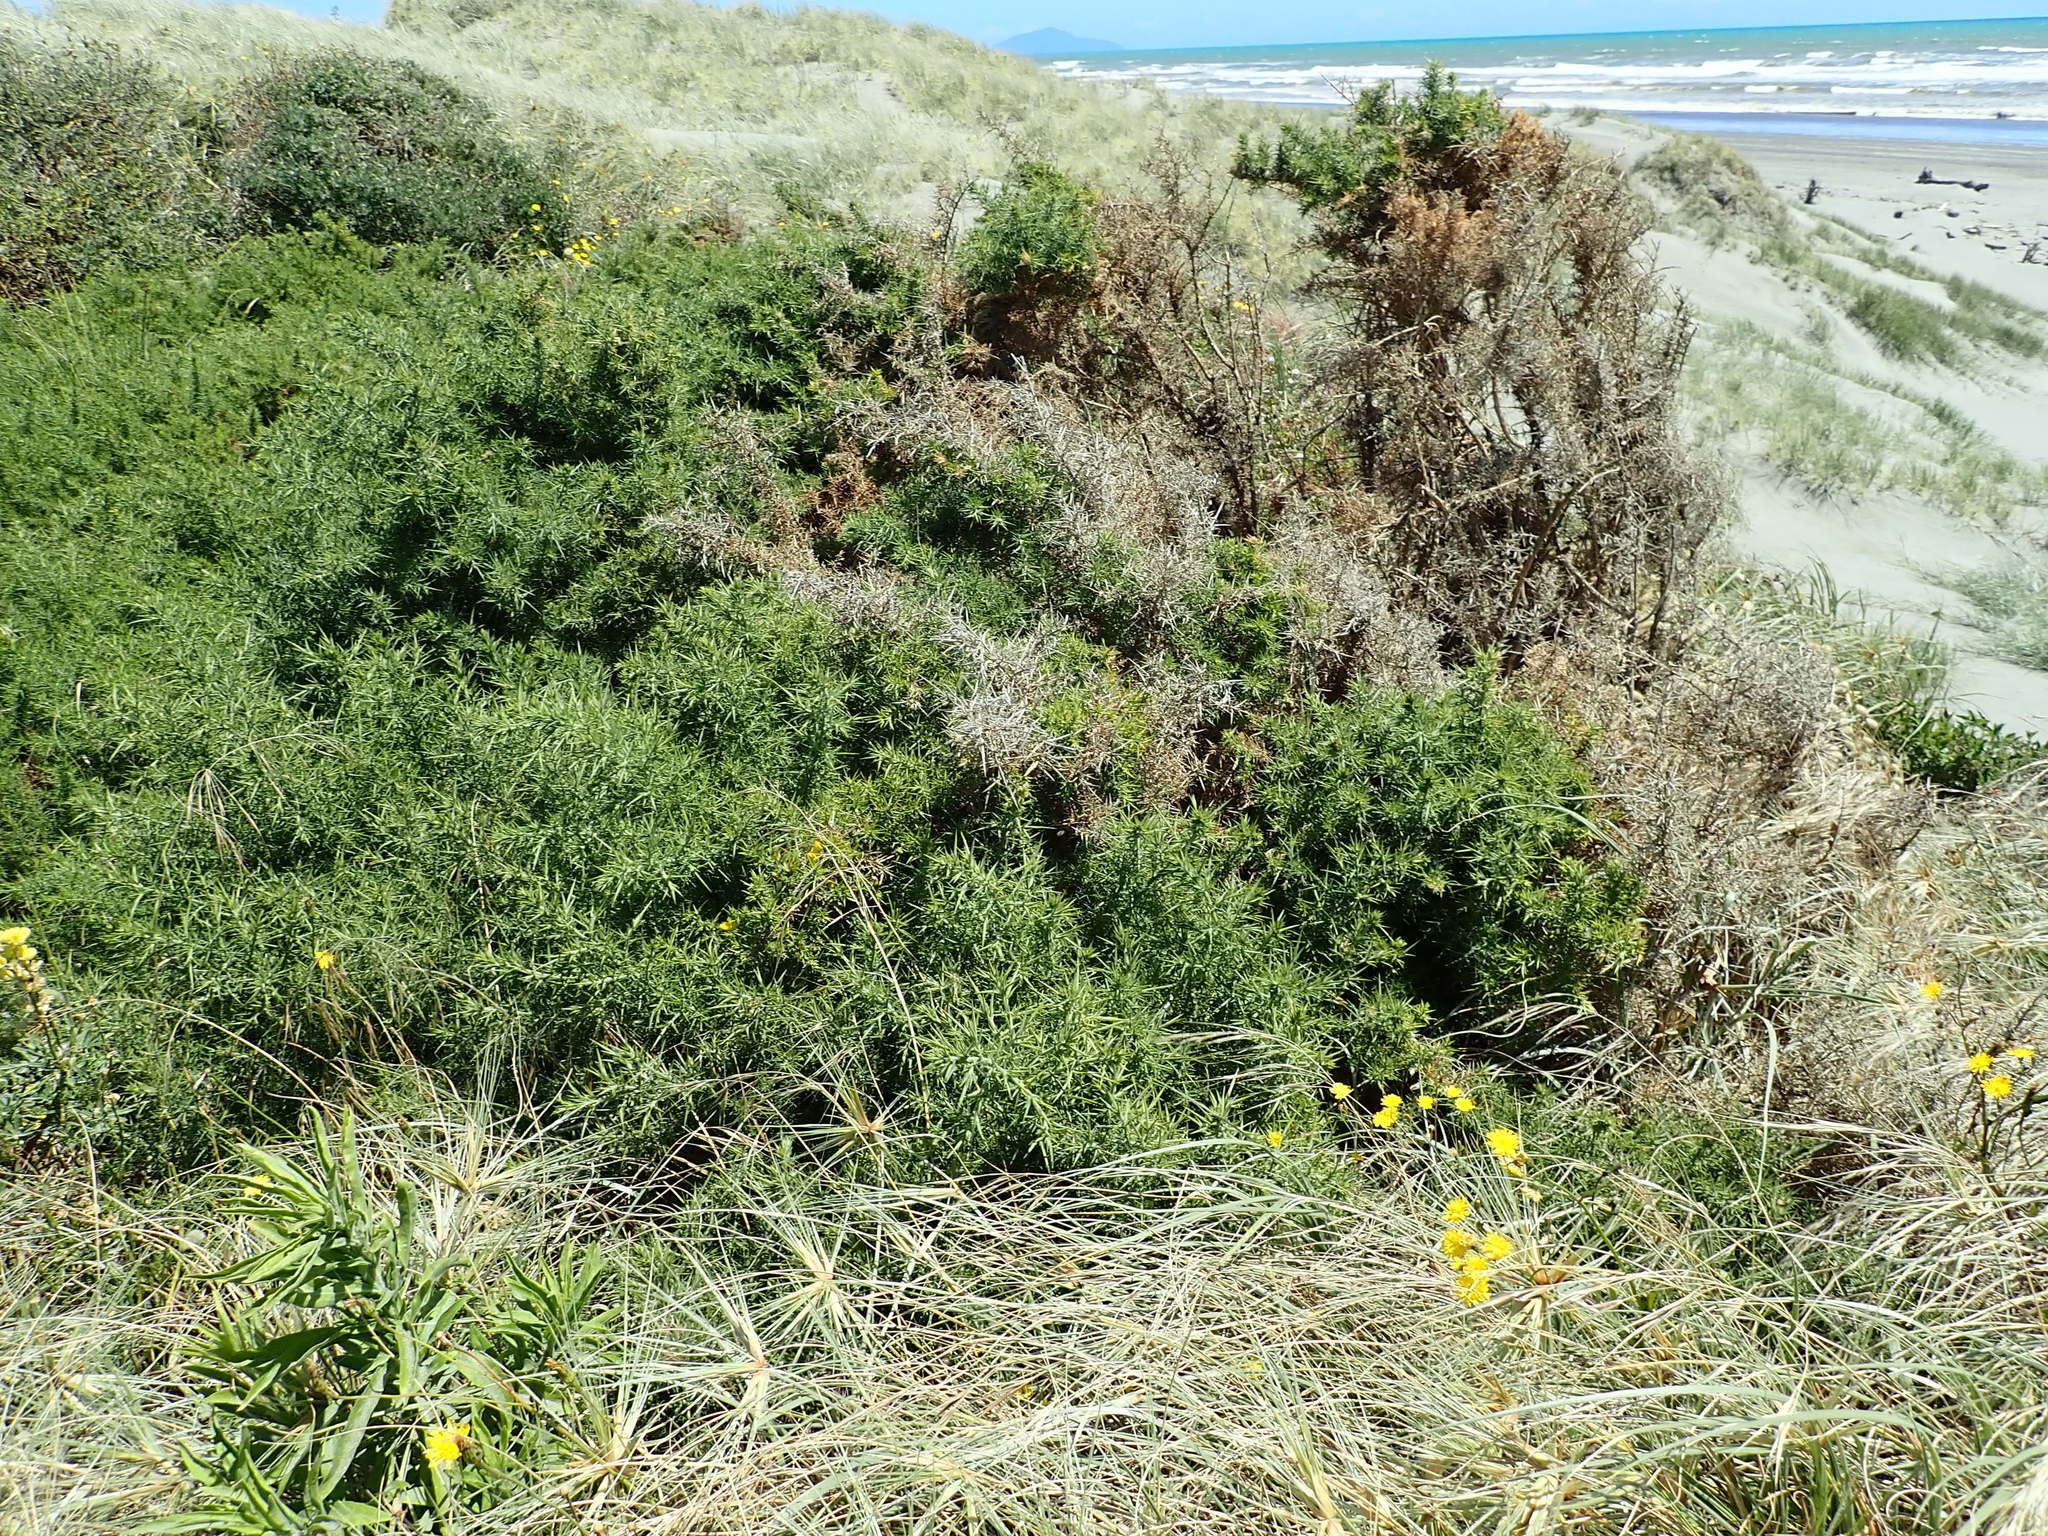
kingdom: Plantae
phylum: Tracheophyta
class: Magnoliopsida
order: Fabales
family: Fabaceae
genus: Ulex
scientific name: Ulex europaeus
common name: Common gorse
